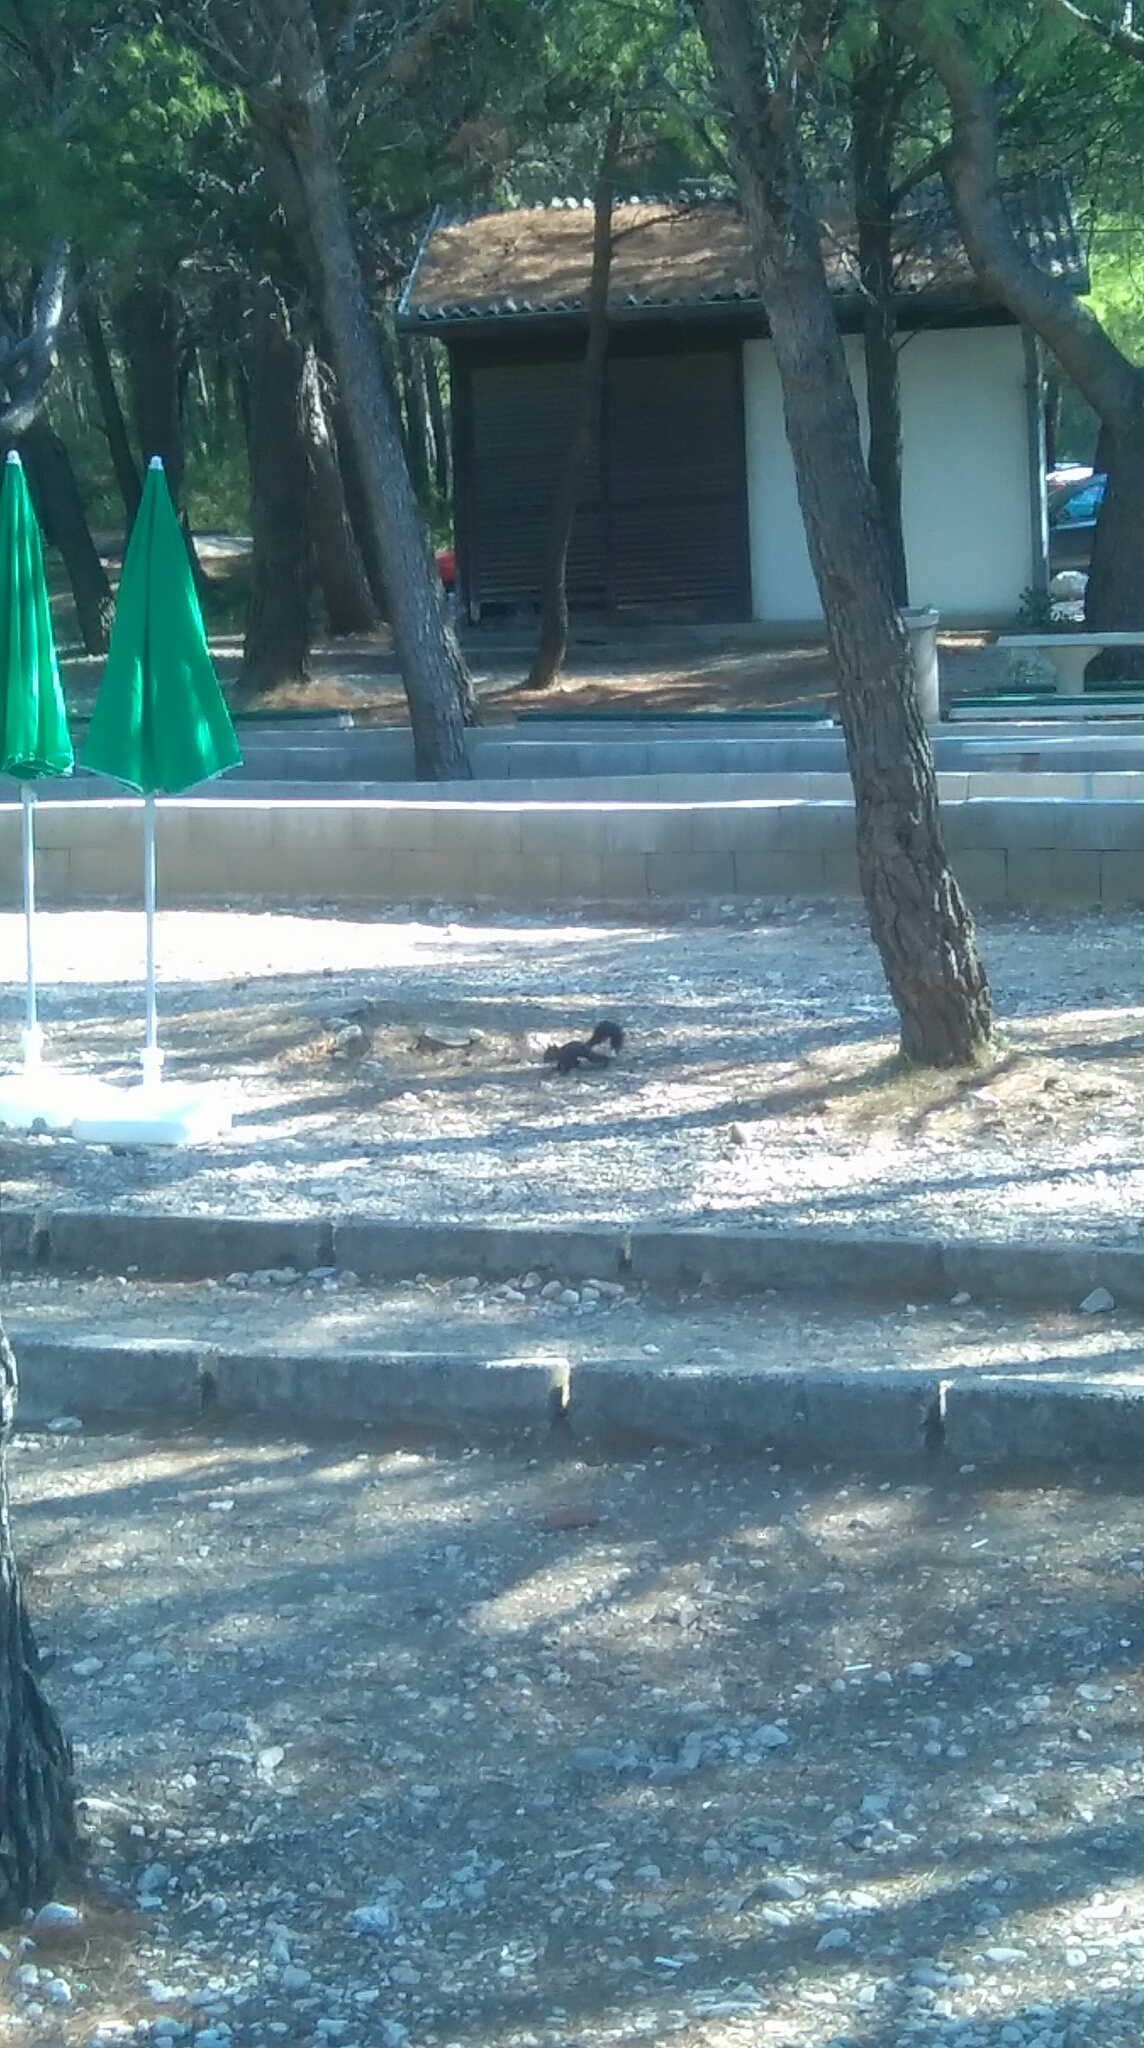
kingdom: Animalia
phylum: Chordata
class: Mammalia
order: Rodentia
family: Sciuridae
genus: Sciurus
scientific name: Sciurus vulgaris
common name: Eurasian red squirrel
